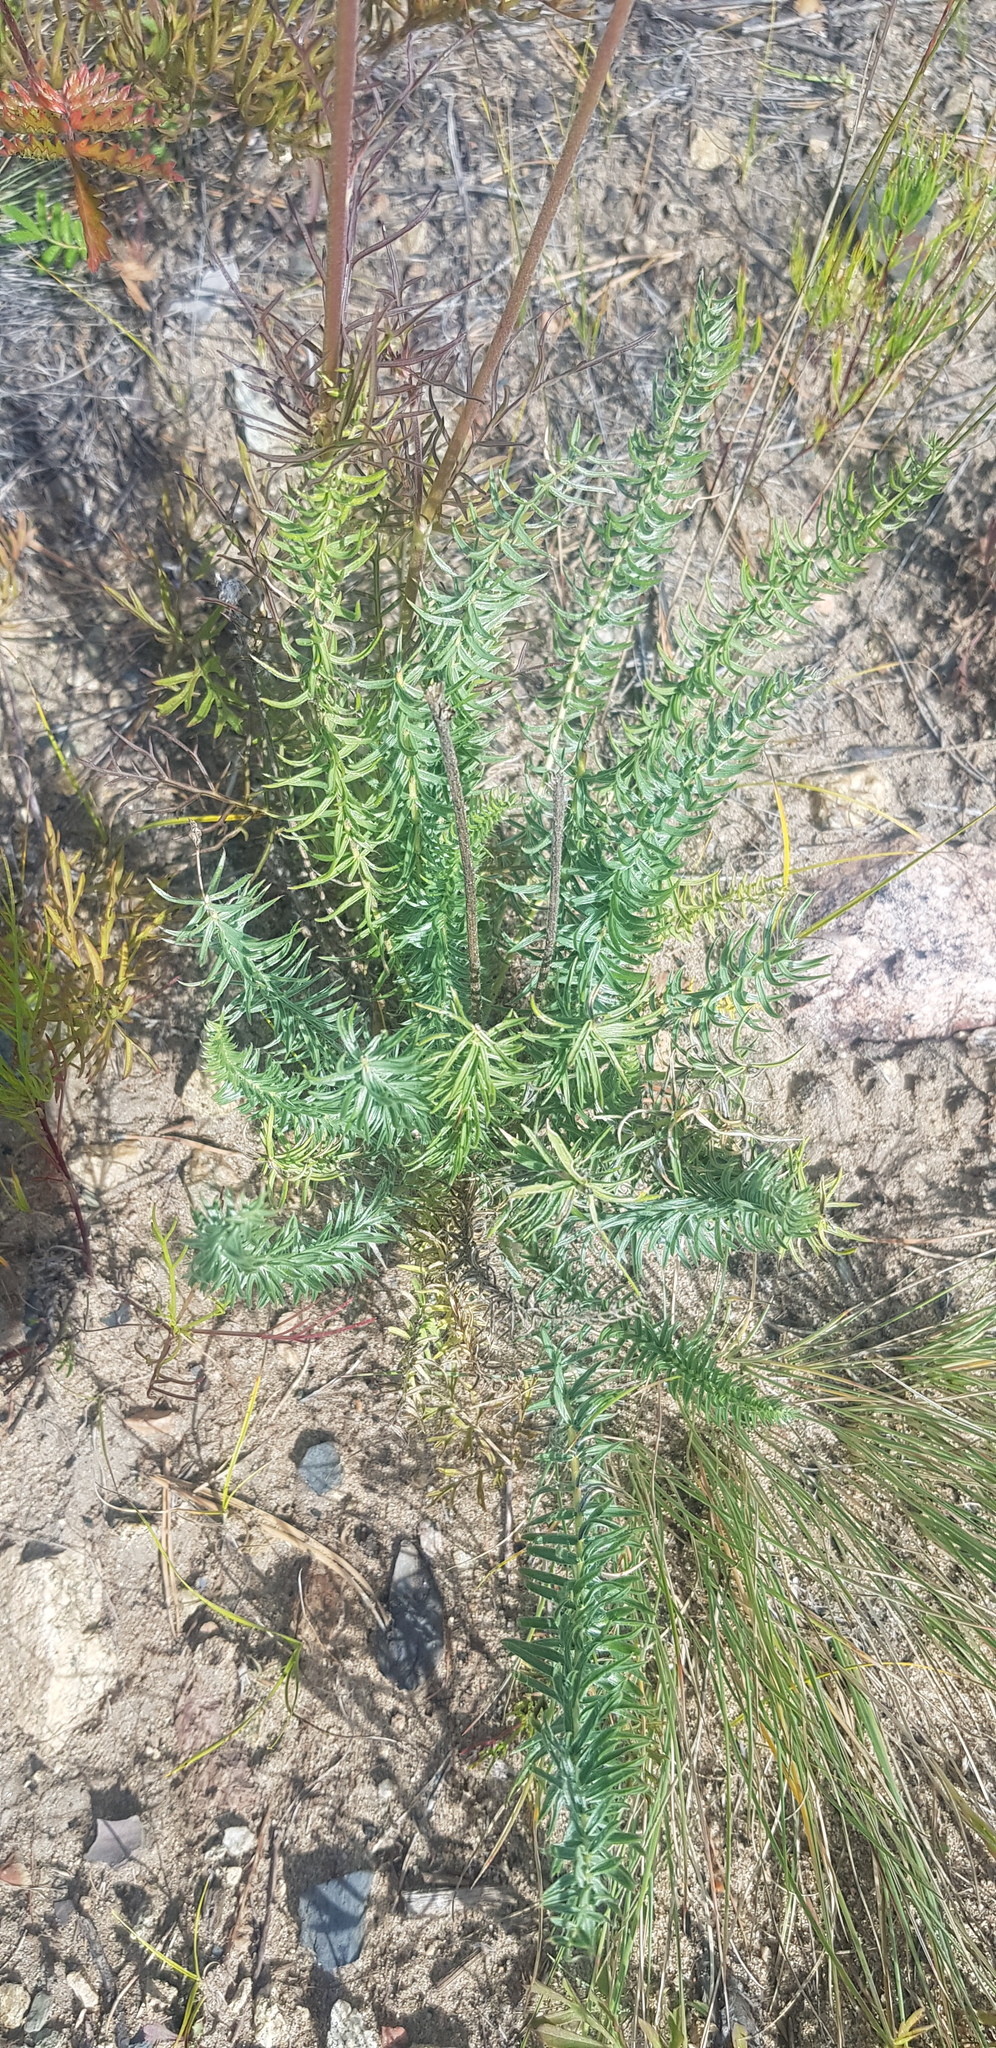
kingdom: Plantae
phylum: Tracheophyta
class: Magnoliopsida
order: Fabales
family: Fabaceae
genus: Oxytropis
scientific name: Oxytropis myriophylla
